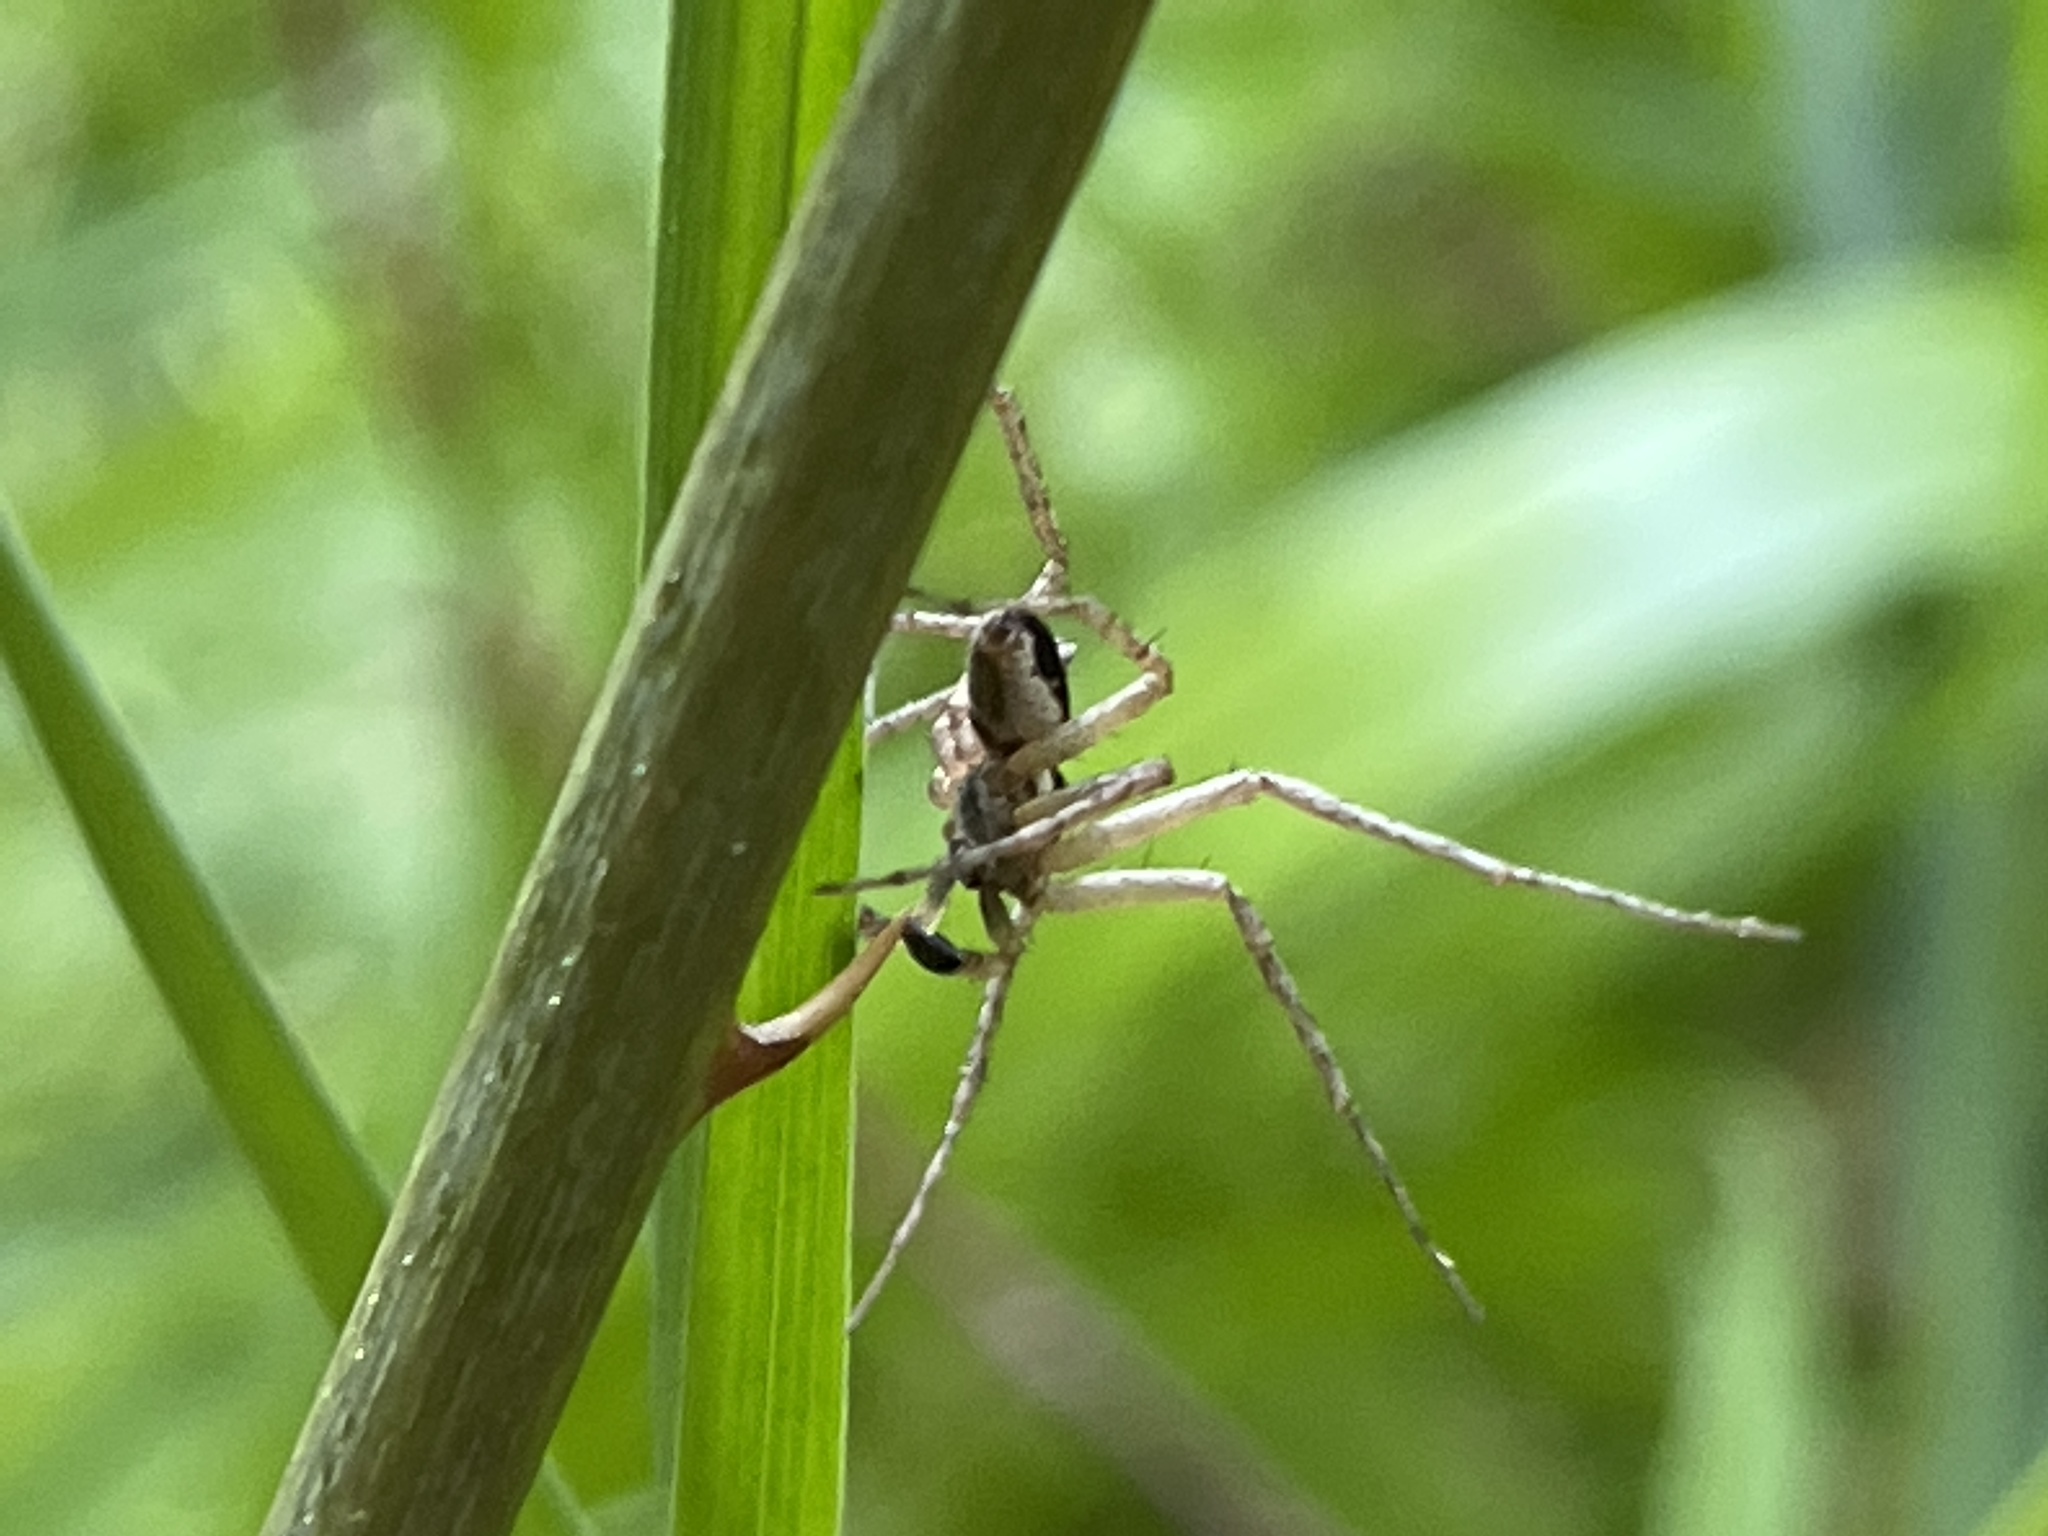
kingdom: Animalia
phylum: Arthropoda
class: Arachnida
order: Araneae
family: Philodromidae
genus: Philodromus
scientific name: Philodromus dispar
